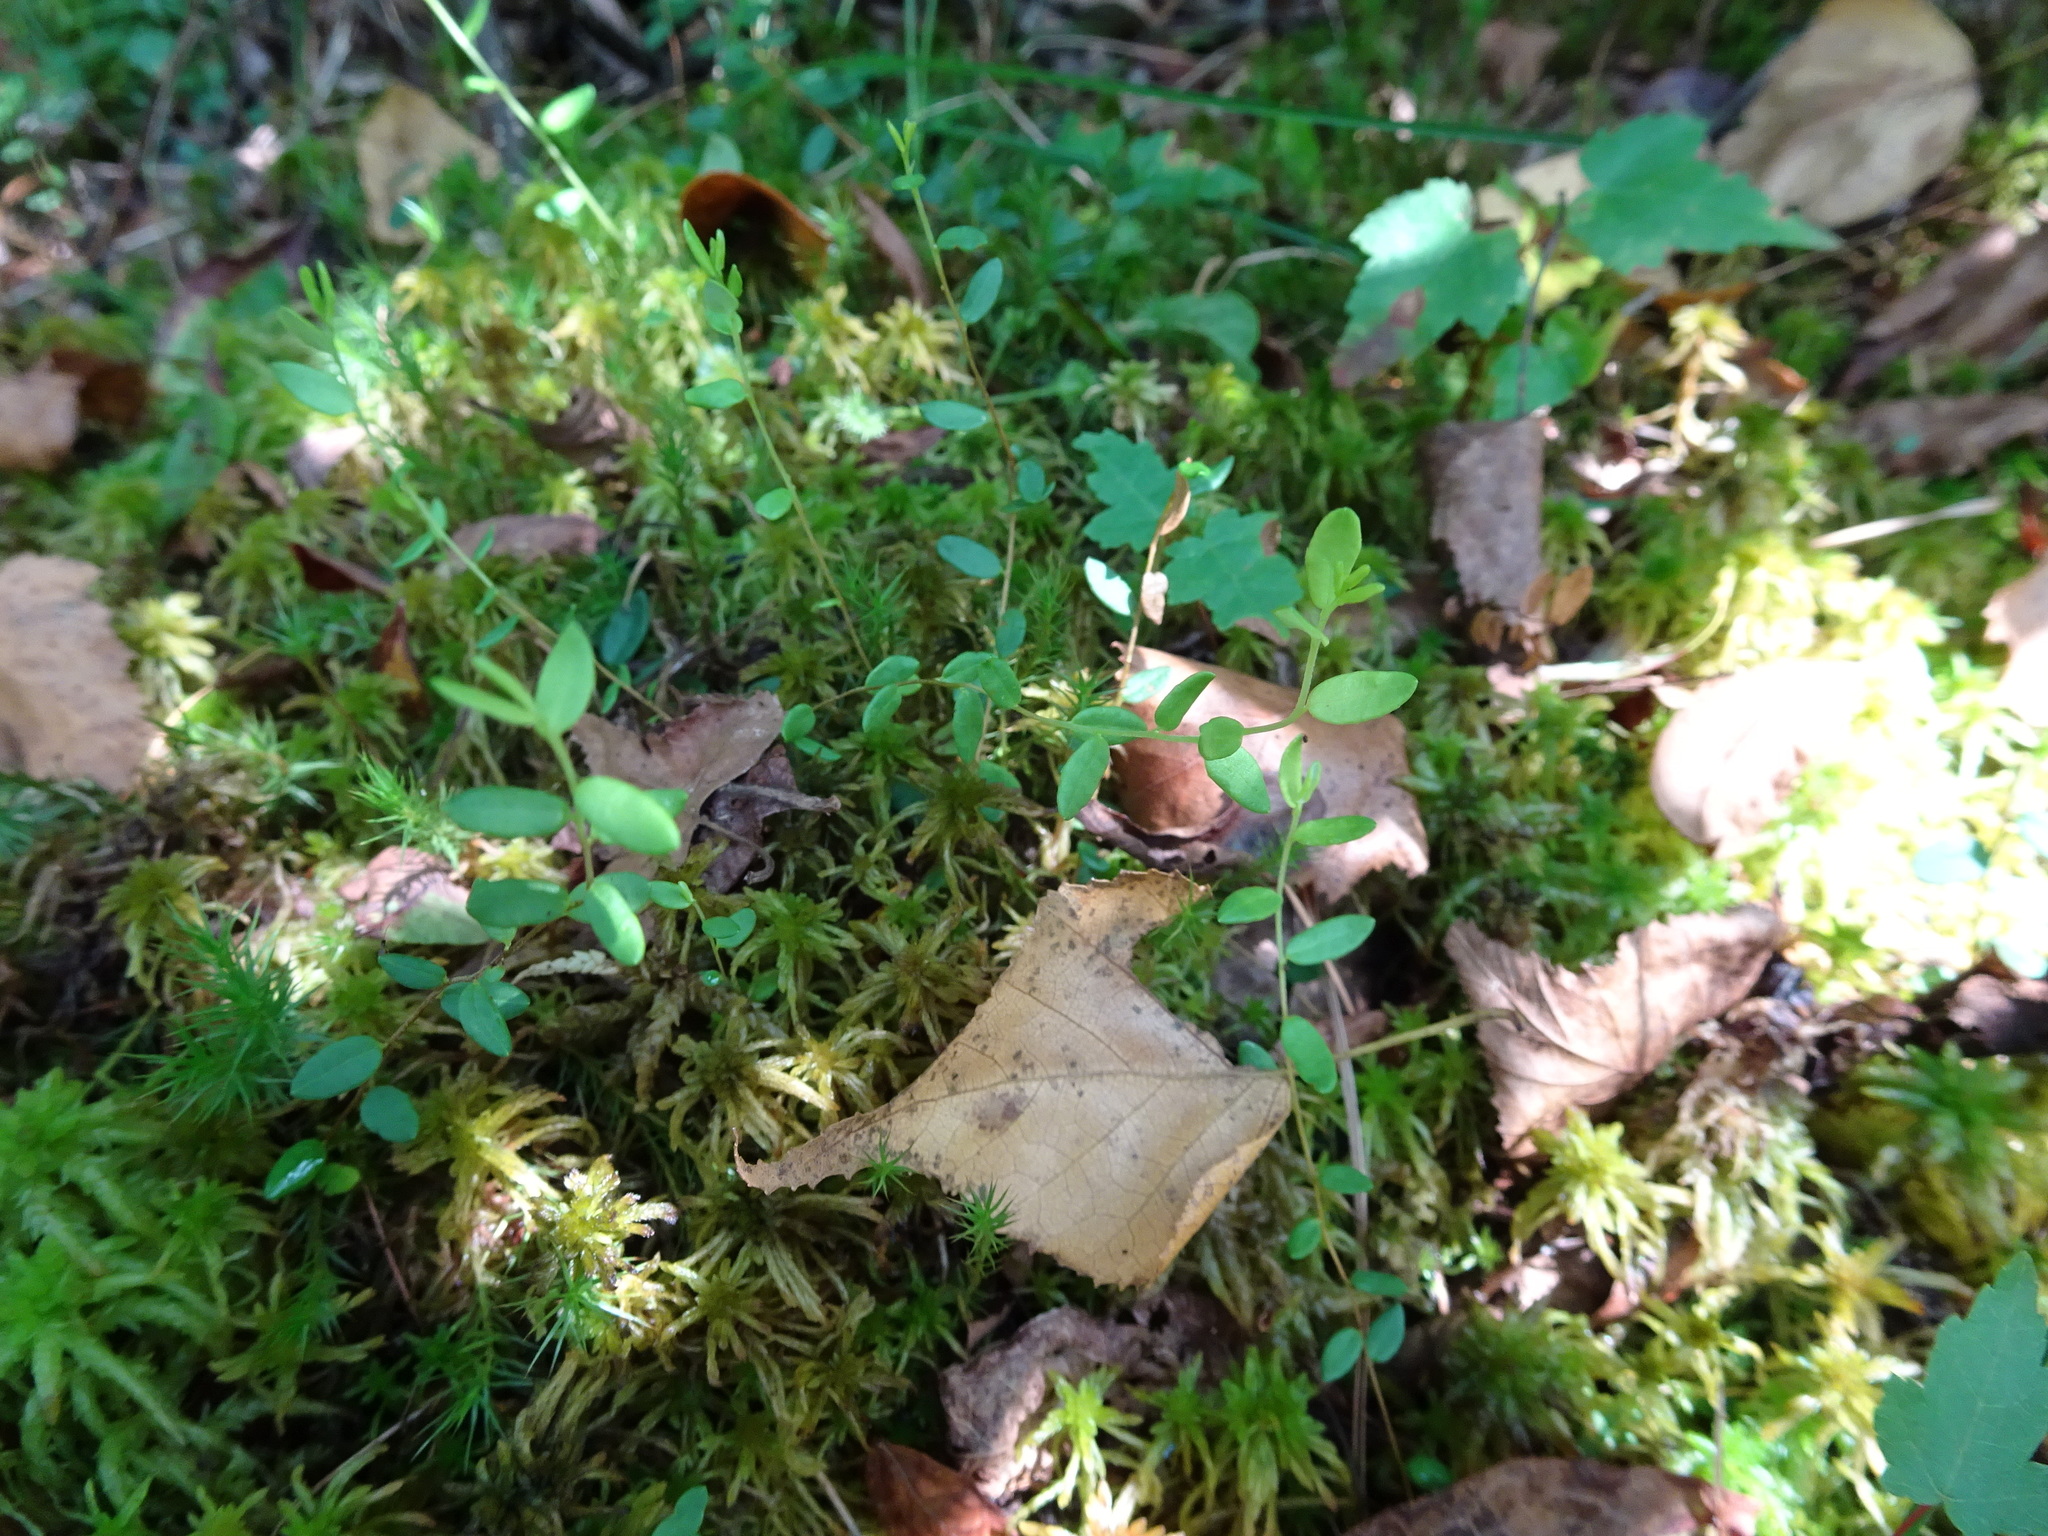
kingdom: Plantae
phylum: Tracheophyta
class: Magnoliopsida
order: Ericales
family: Ericaceae
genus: Vaccinium
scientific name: Vaccinium oxycoccos
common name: Cranberry
